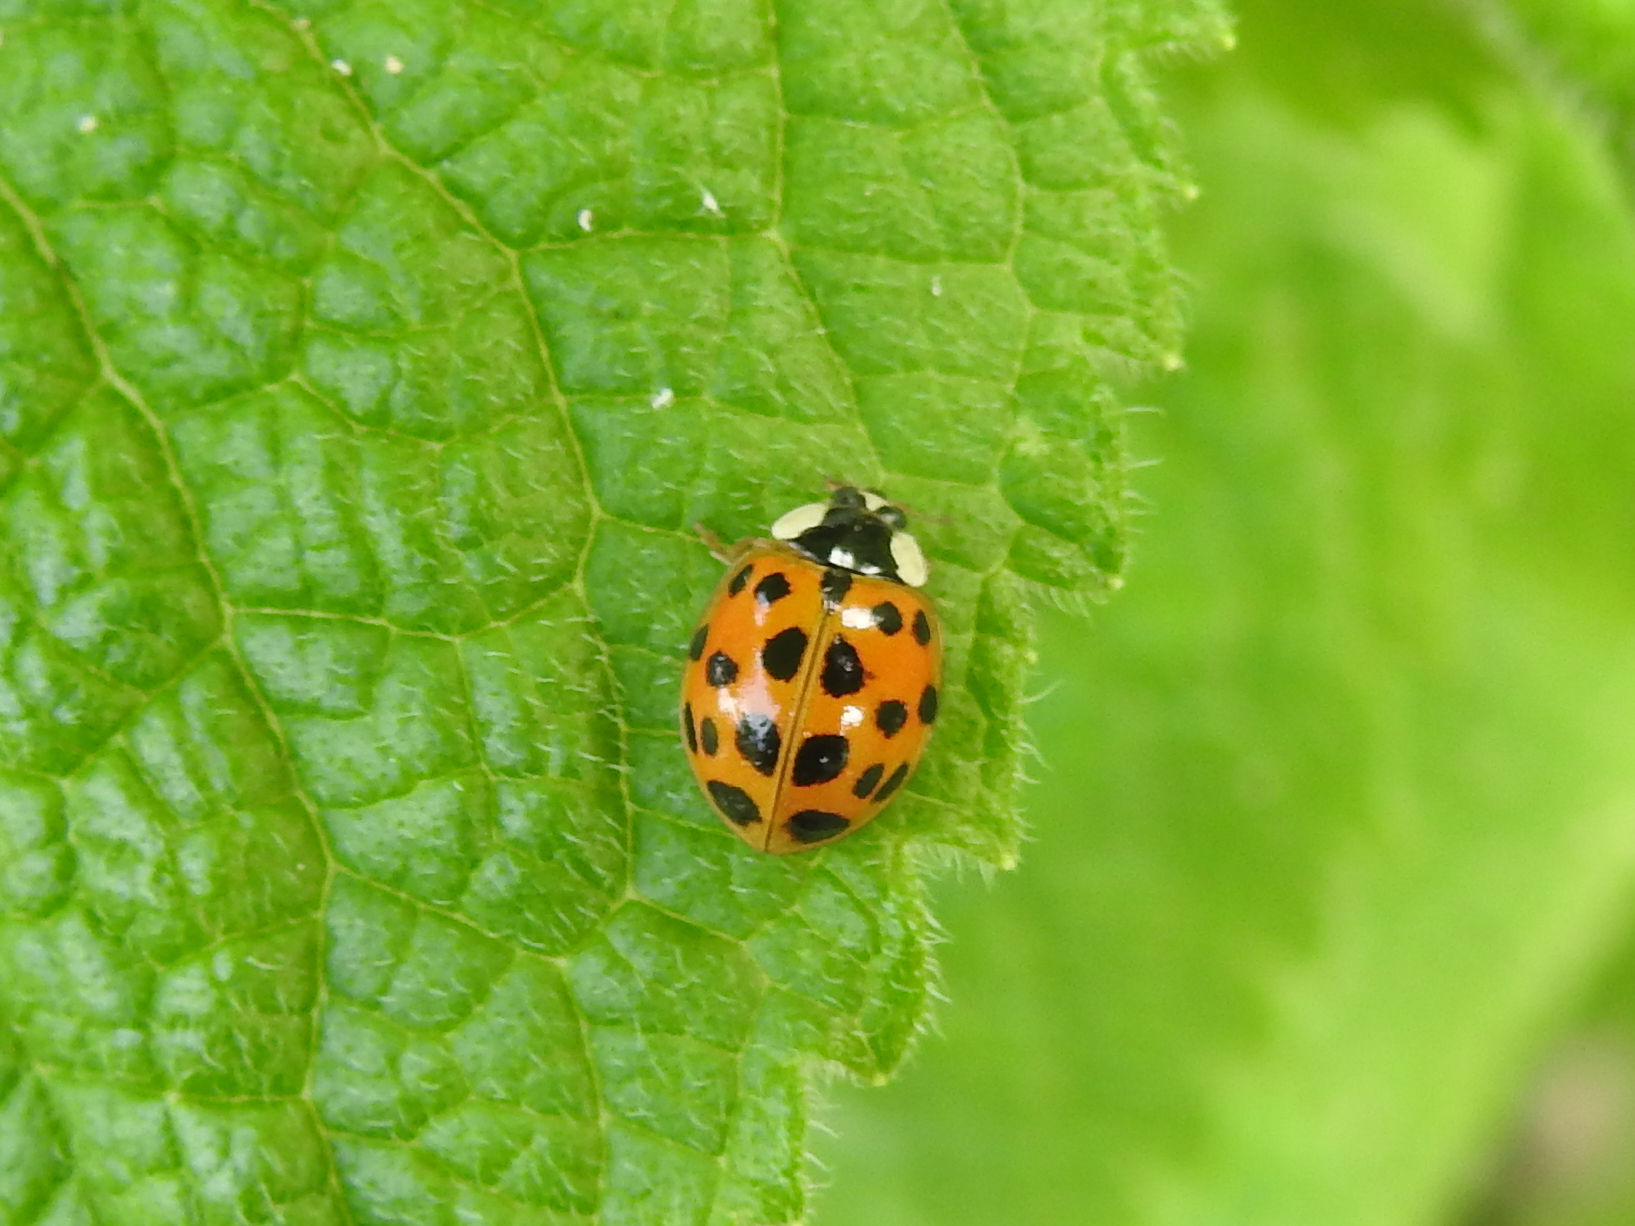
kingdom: Animalia
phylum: Arthropoda
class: Insecta
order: Coleoptera
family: Coccinellidae
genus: Harmonia
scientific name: Harmonia axyridis
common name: Harlequin ladybird
